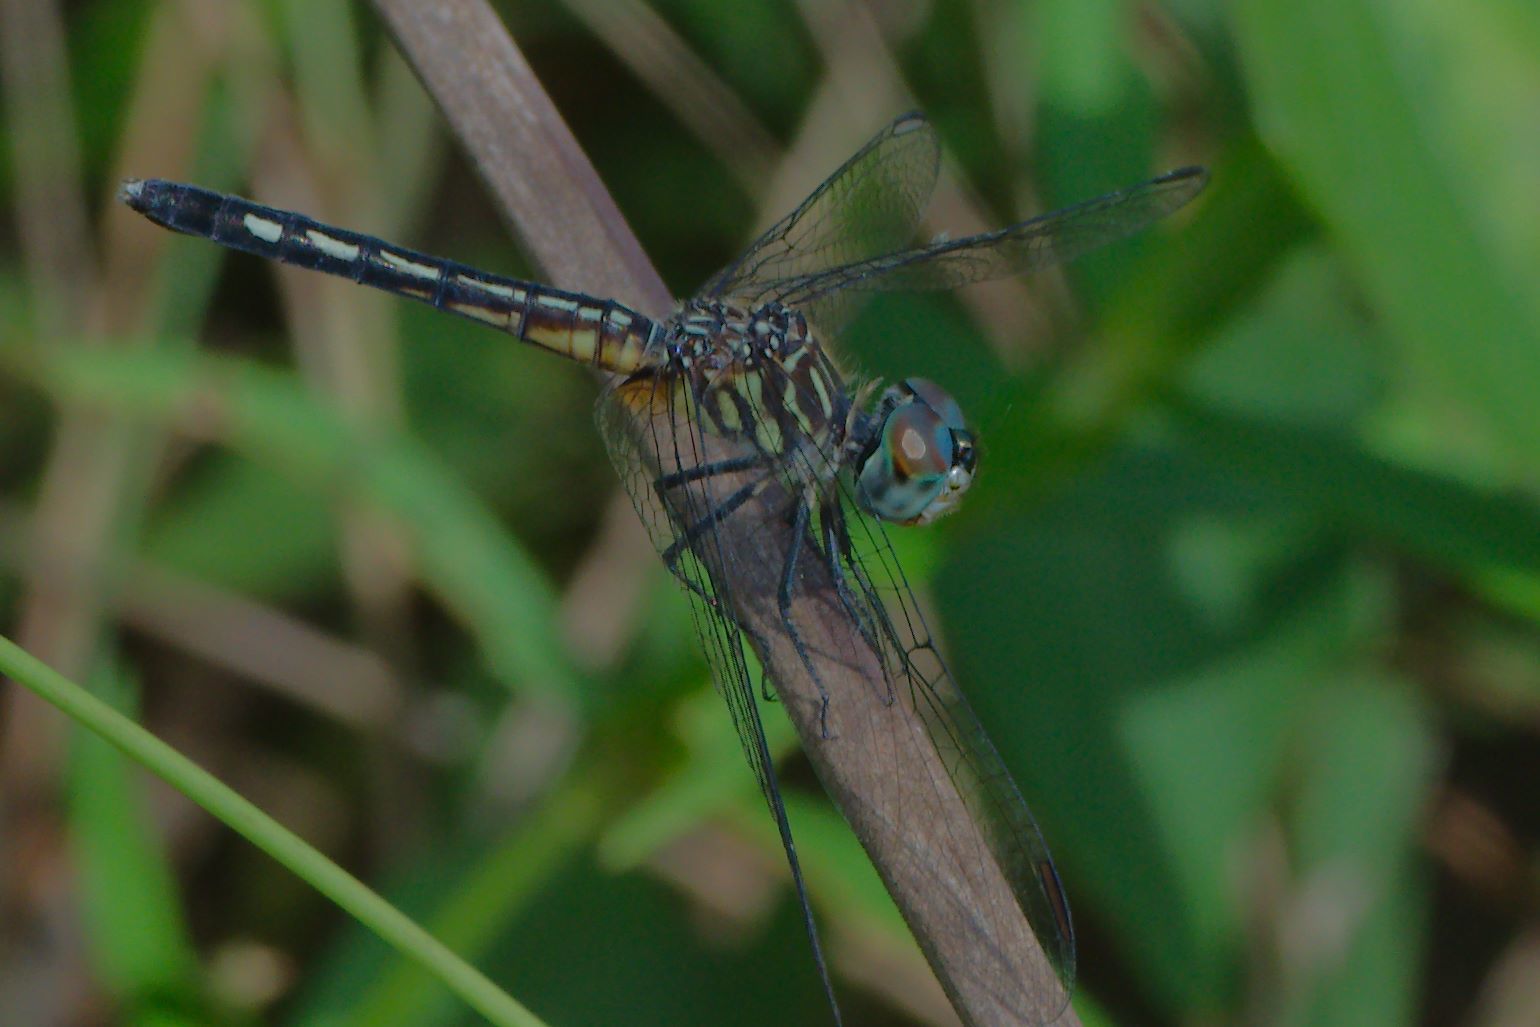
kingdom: Animalia
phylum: Arthropoda
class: Insecta
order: Odonata
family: Libellulidae
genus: Pachydiplax
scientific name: Pachydiplax longipennis
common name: Blue dasher
